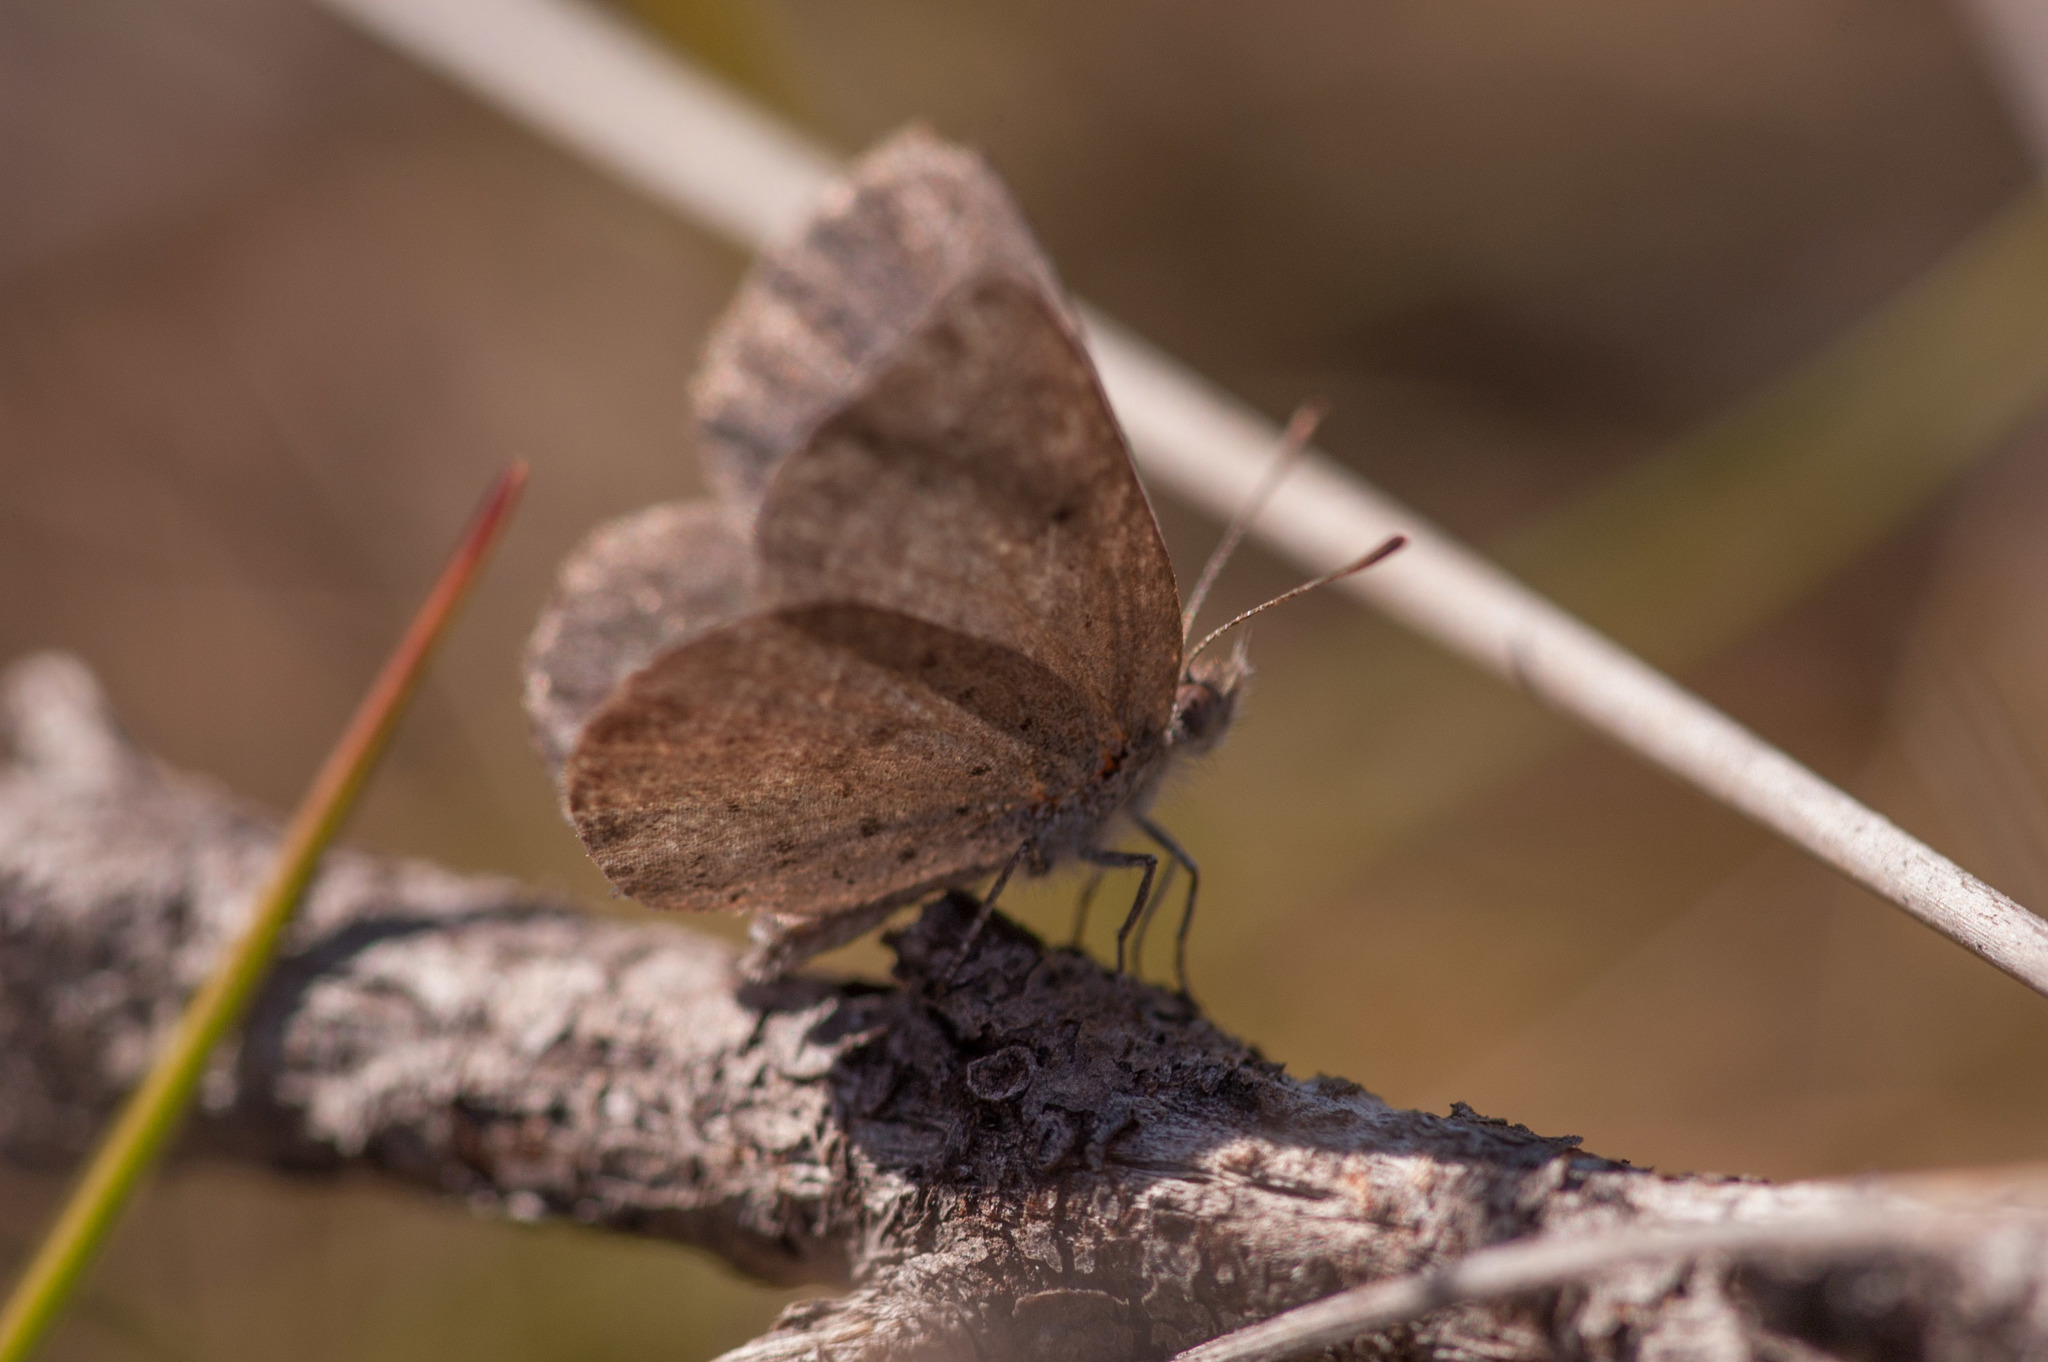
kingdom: Animalia
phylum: Arthropoda
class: Insecta
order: Lepidoptera
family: Lycaenidae
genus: Zizina
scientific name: Zizina otis
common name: Lesser grass blue
